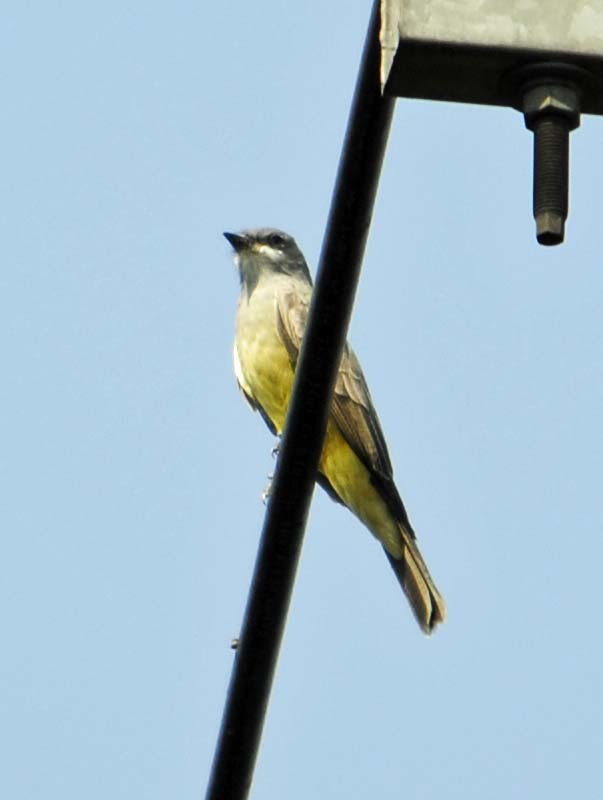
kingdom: Animalia
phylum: Chordata
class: Aves
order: Passeriformes
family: Tyrannidae
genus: Tyrannus
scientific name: Tyrannus vociferans
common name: Cassin's kingbird
